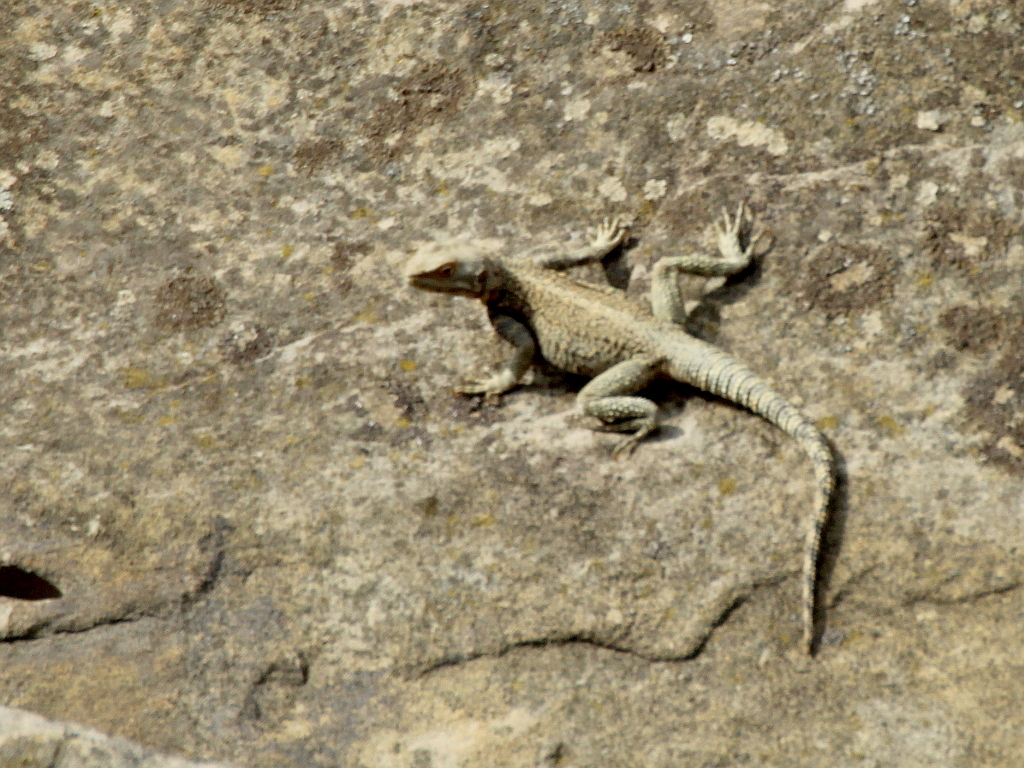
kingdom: Animalia
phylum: Chordata
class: Squamata
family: Agamidae
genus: Paralaudakia
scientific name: Paralaudakia caucasia
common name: Caucasian agama
